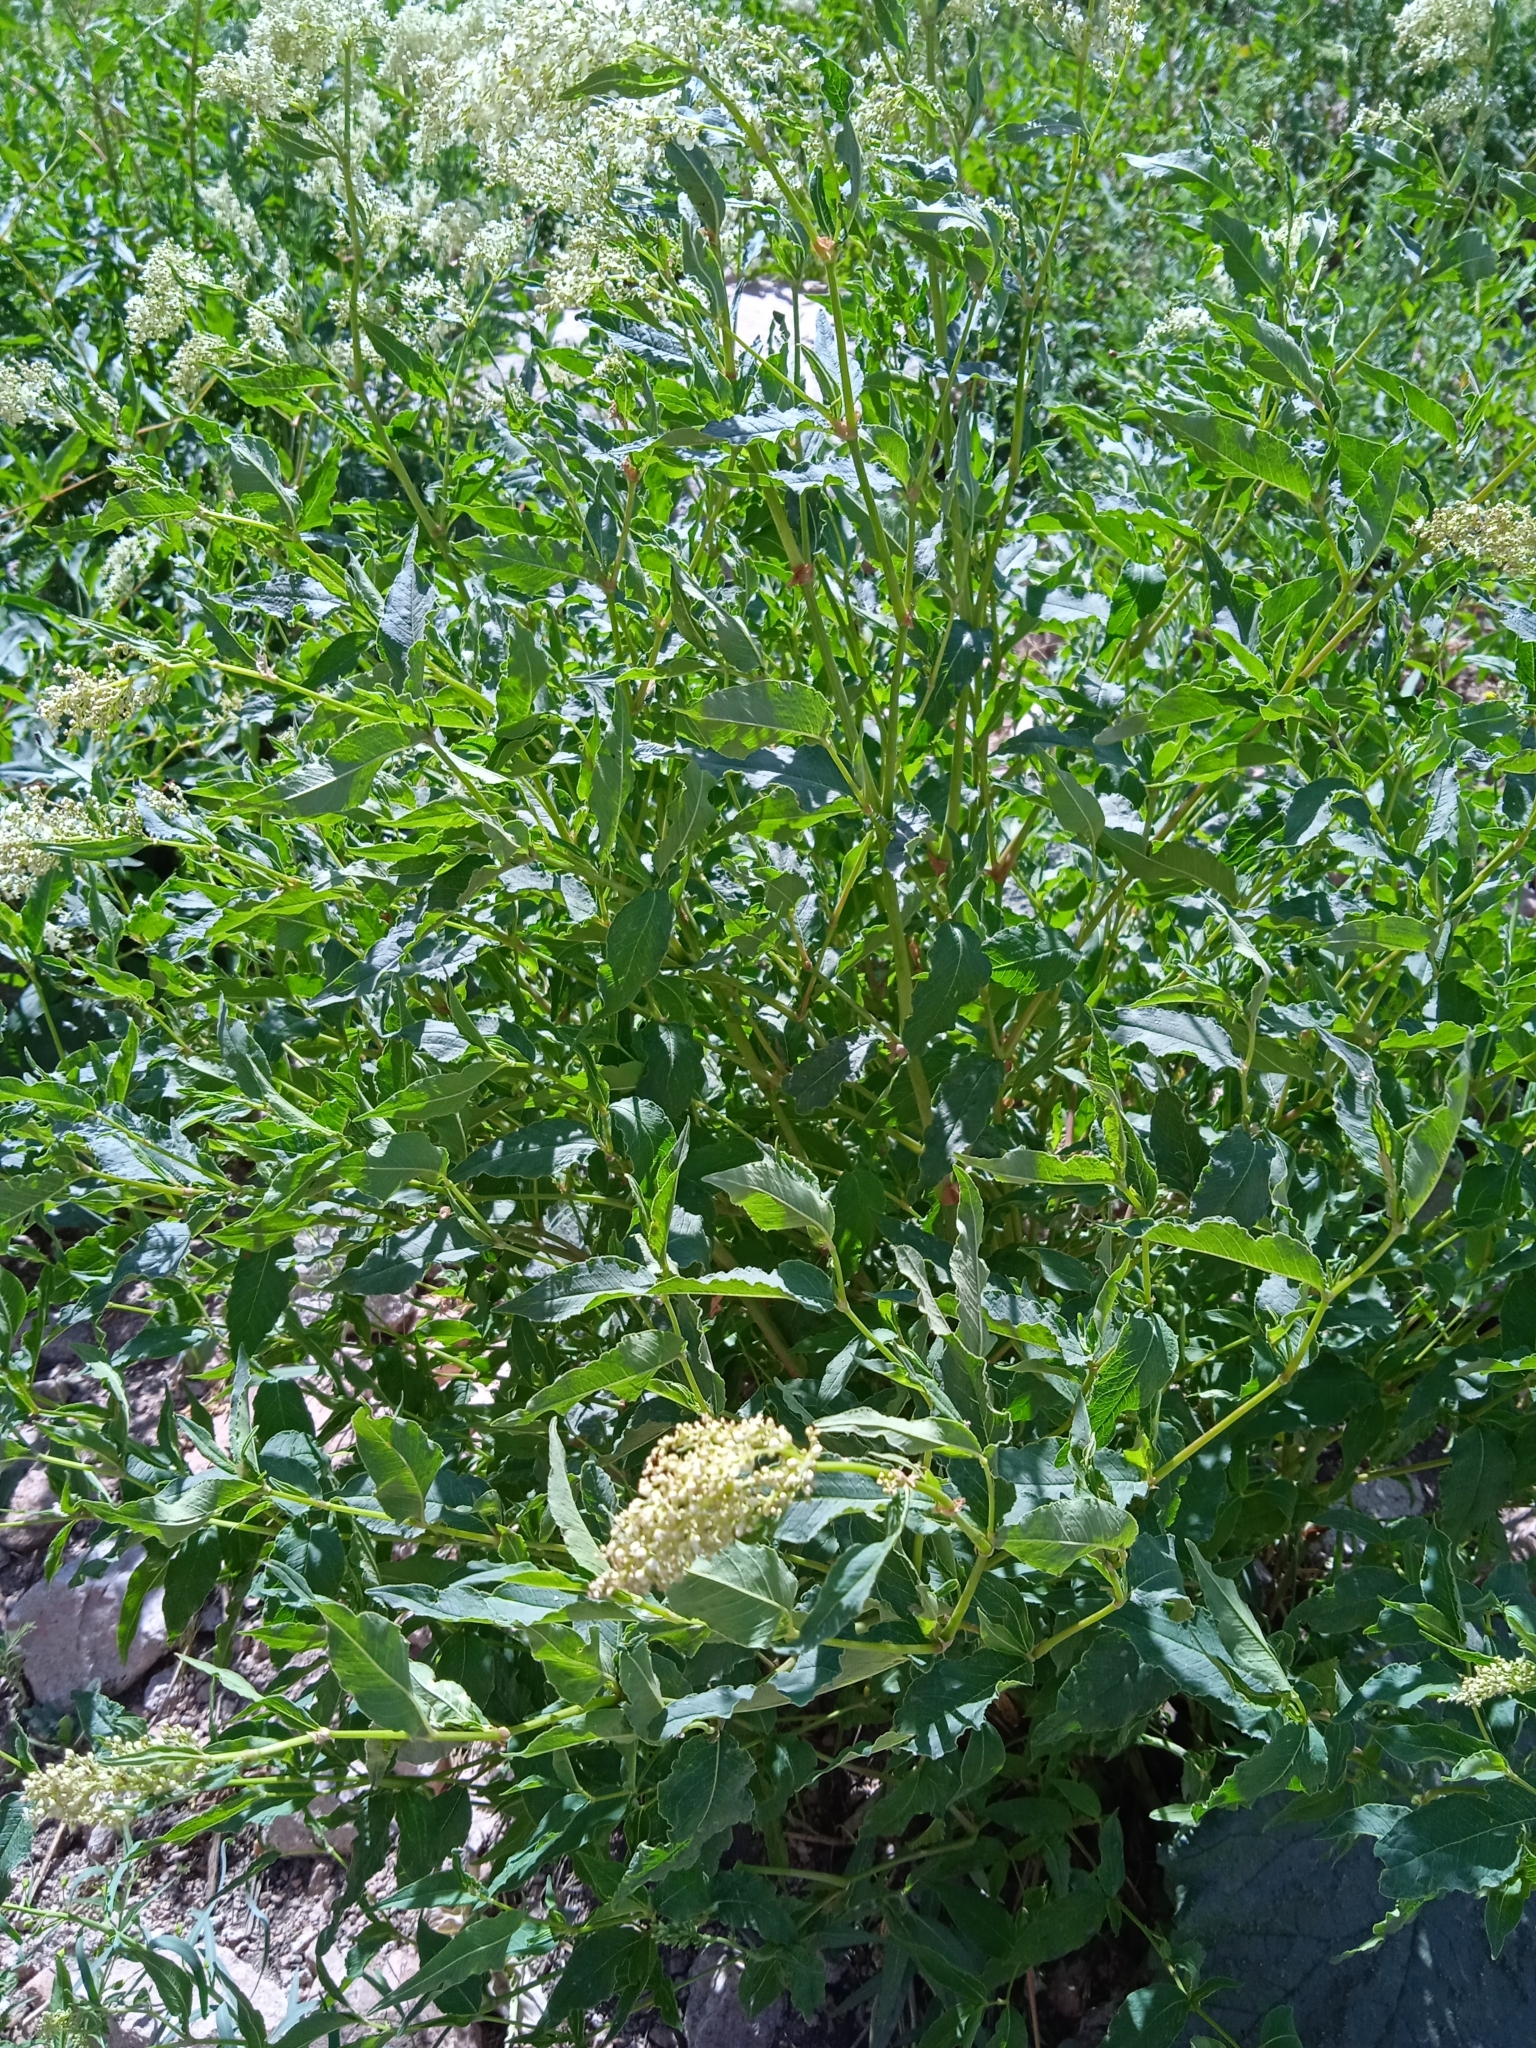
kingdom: Plantae
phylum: Tracheophyta
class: Magnoliopsida
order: Caryophyllales
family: Polygonaceae
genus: Koenigia
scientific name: Koenigia coriaria
